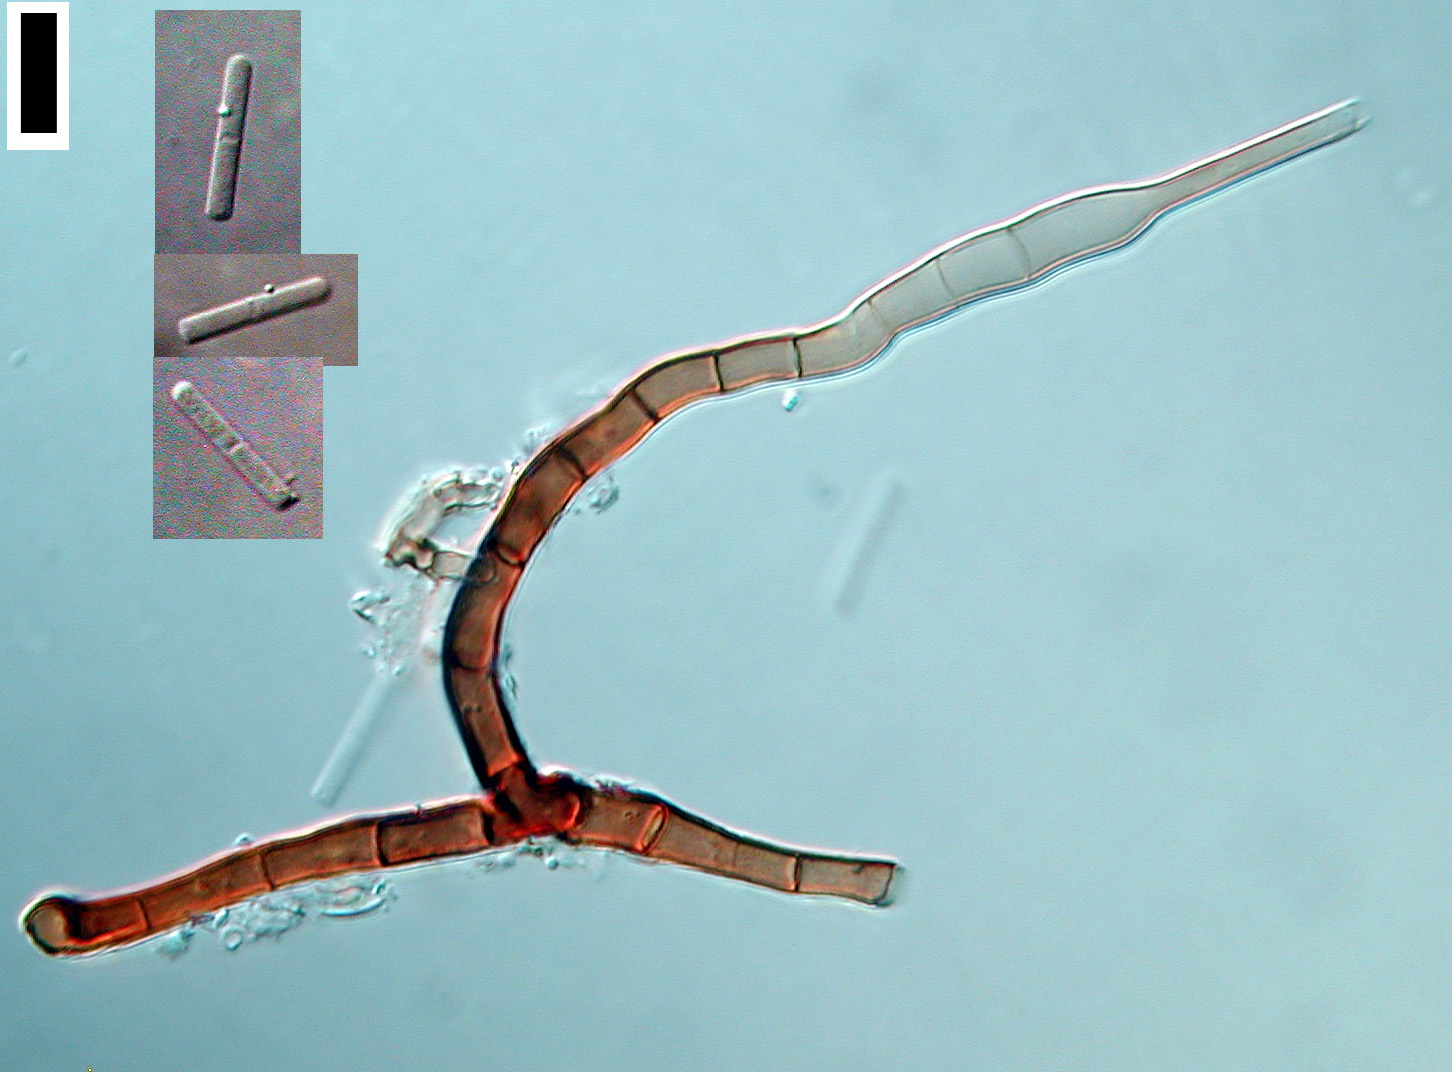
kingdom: Fungi
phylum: Ascomycota
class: Leotiomycetes
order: Helotiales
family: Pezizellaceae
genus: Chalara
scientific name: Chalara urceolata
